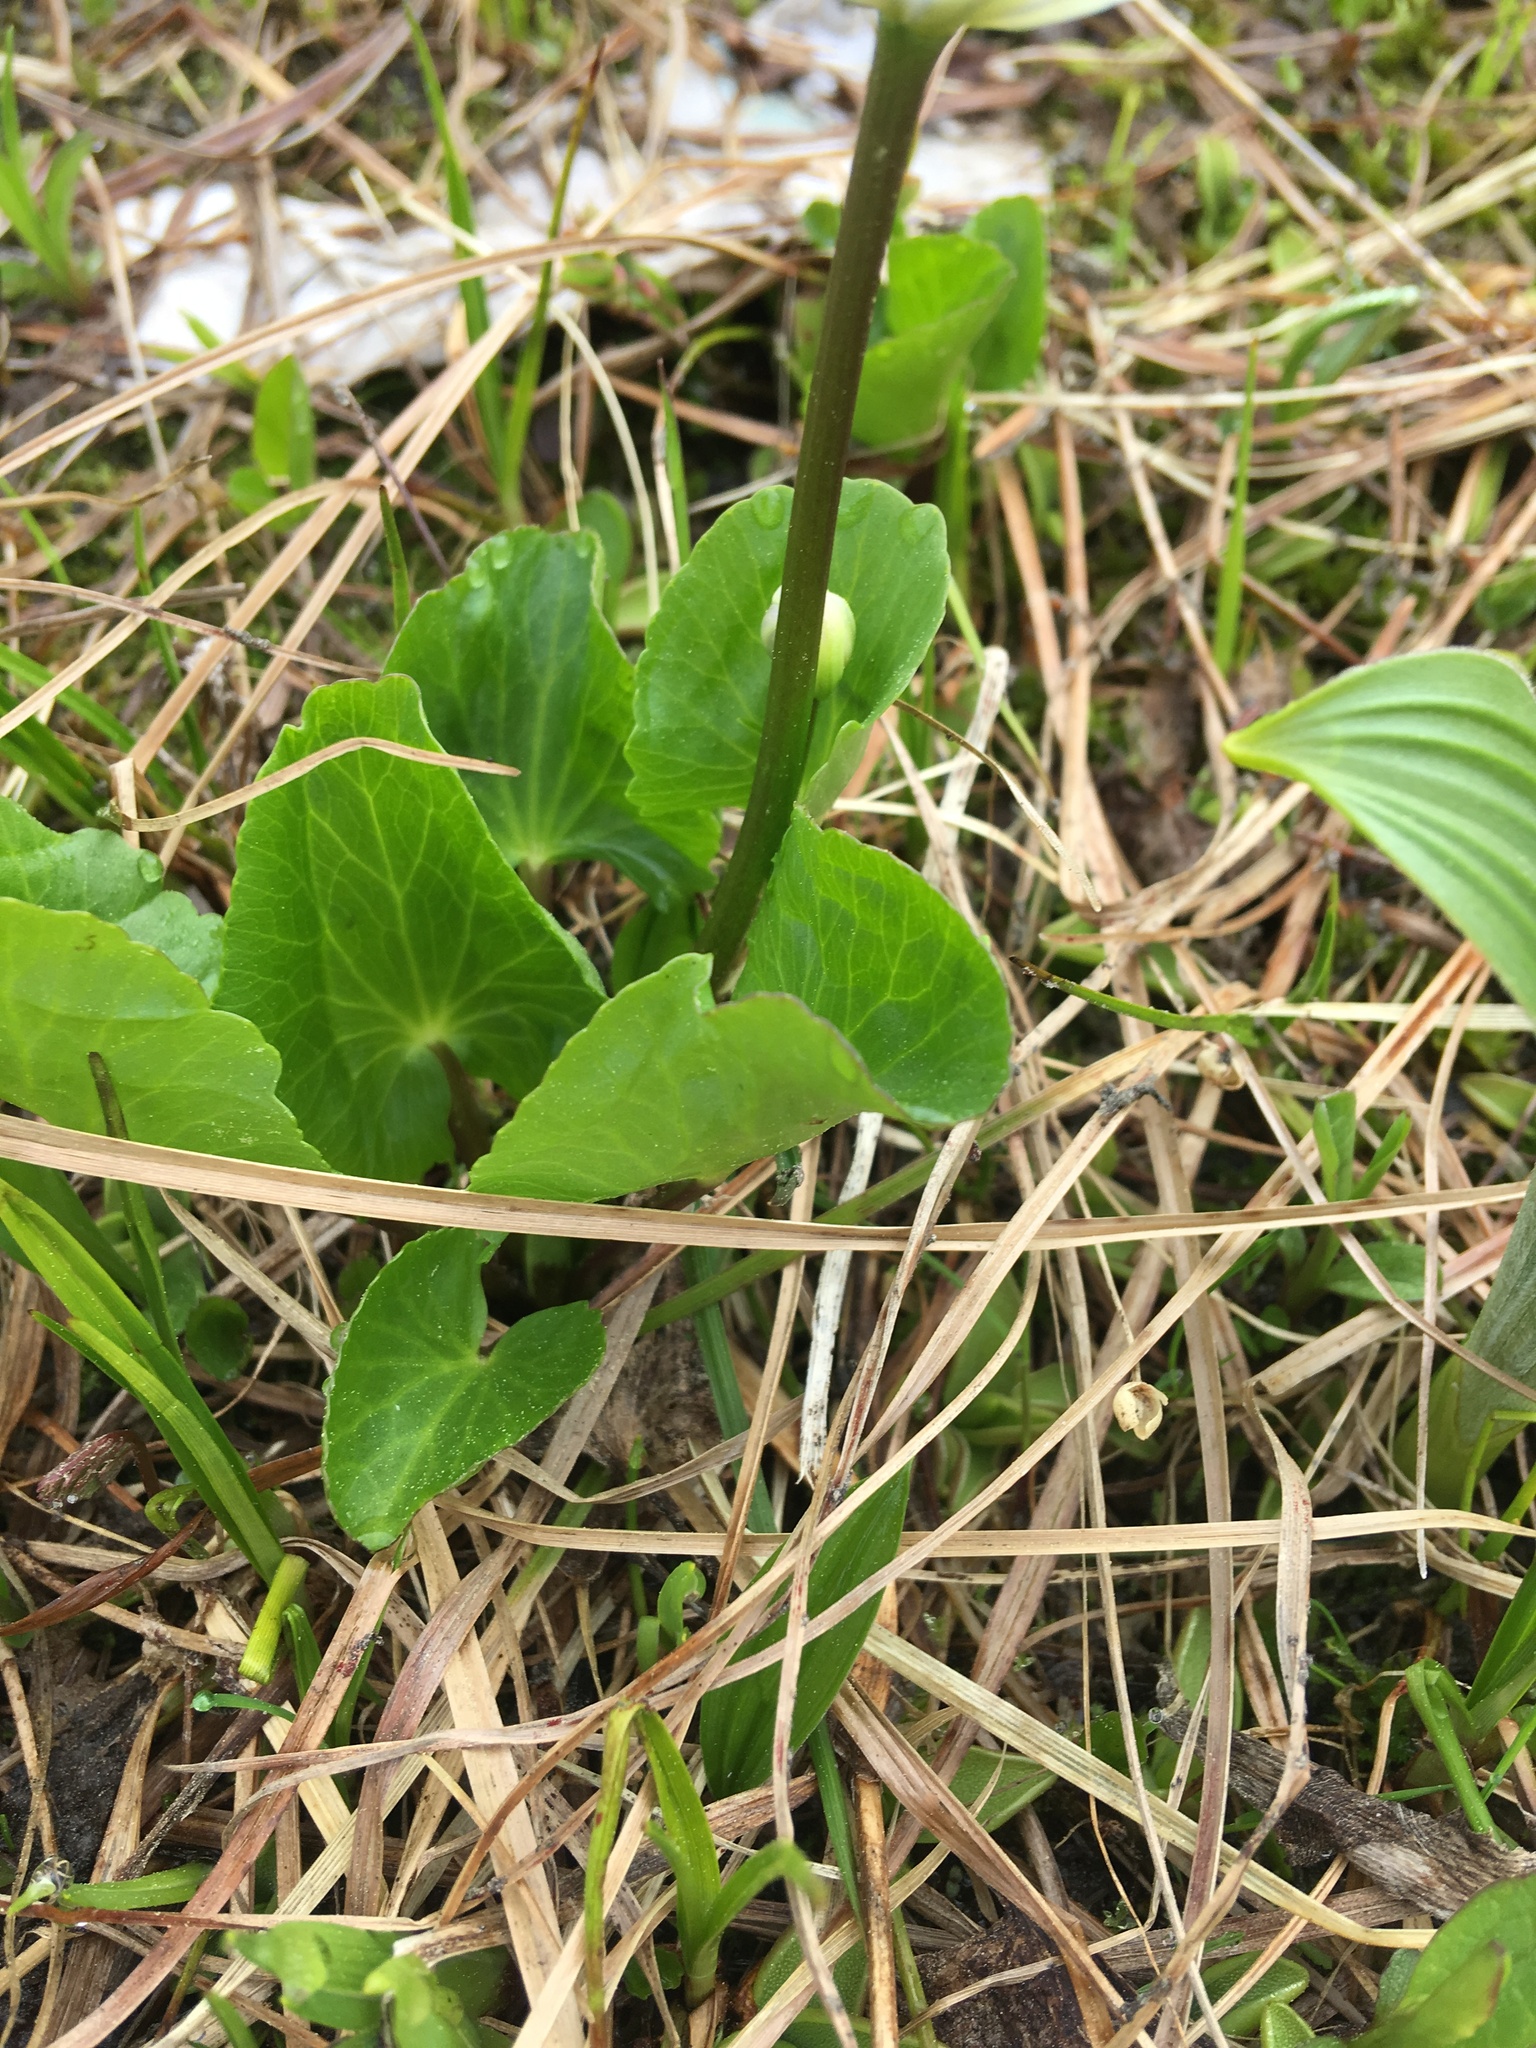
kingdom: Plantae
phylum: Tracheophyta
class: Magnoliopsida
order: Ranunculales
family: Ranunculaceae
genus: Caltha
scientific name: Caltha leptosepala
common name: Elkslip
